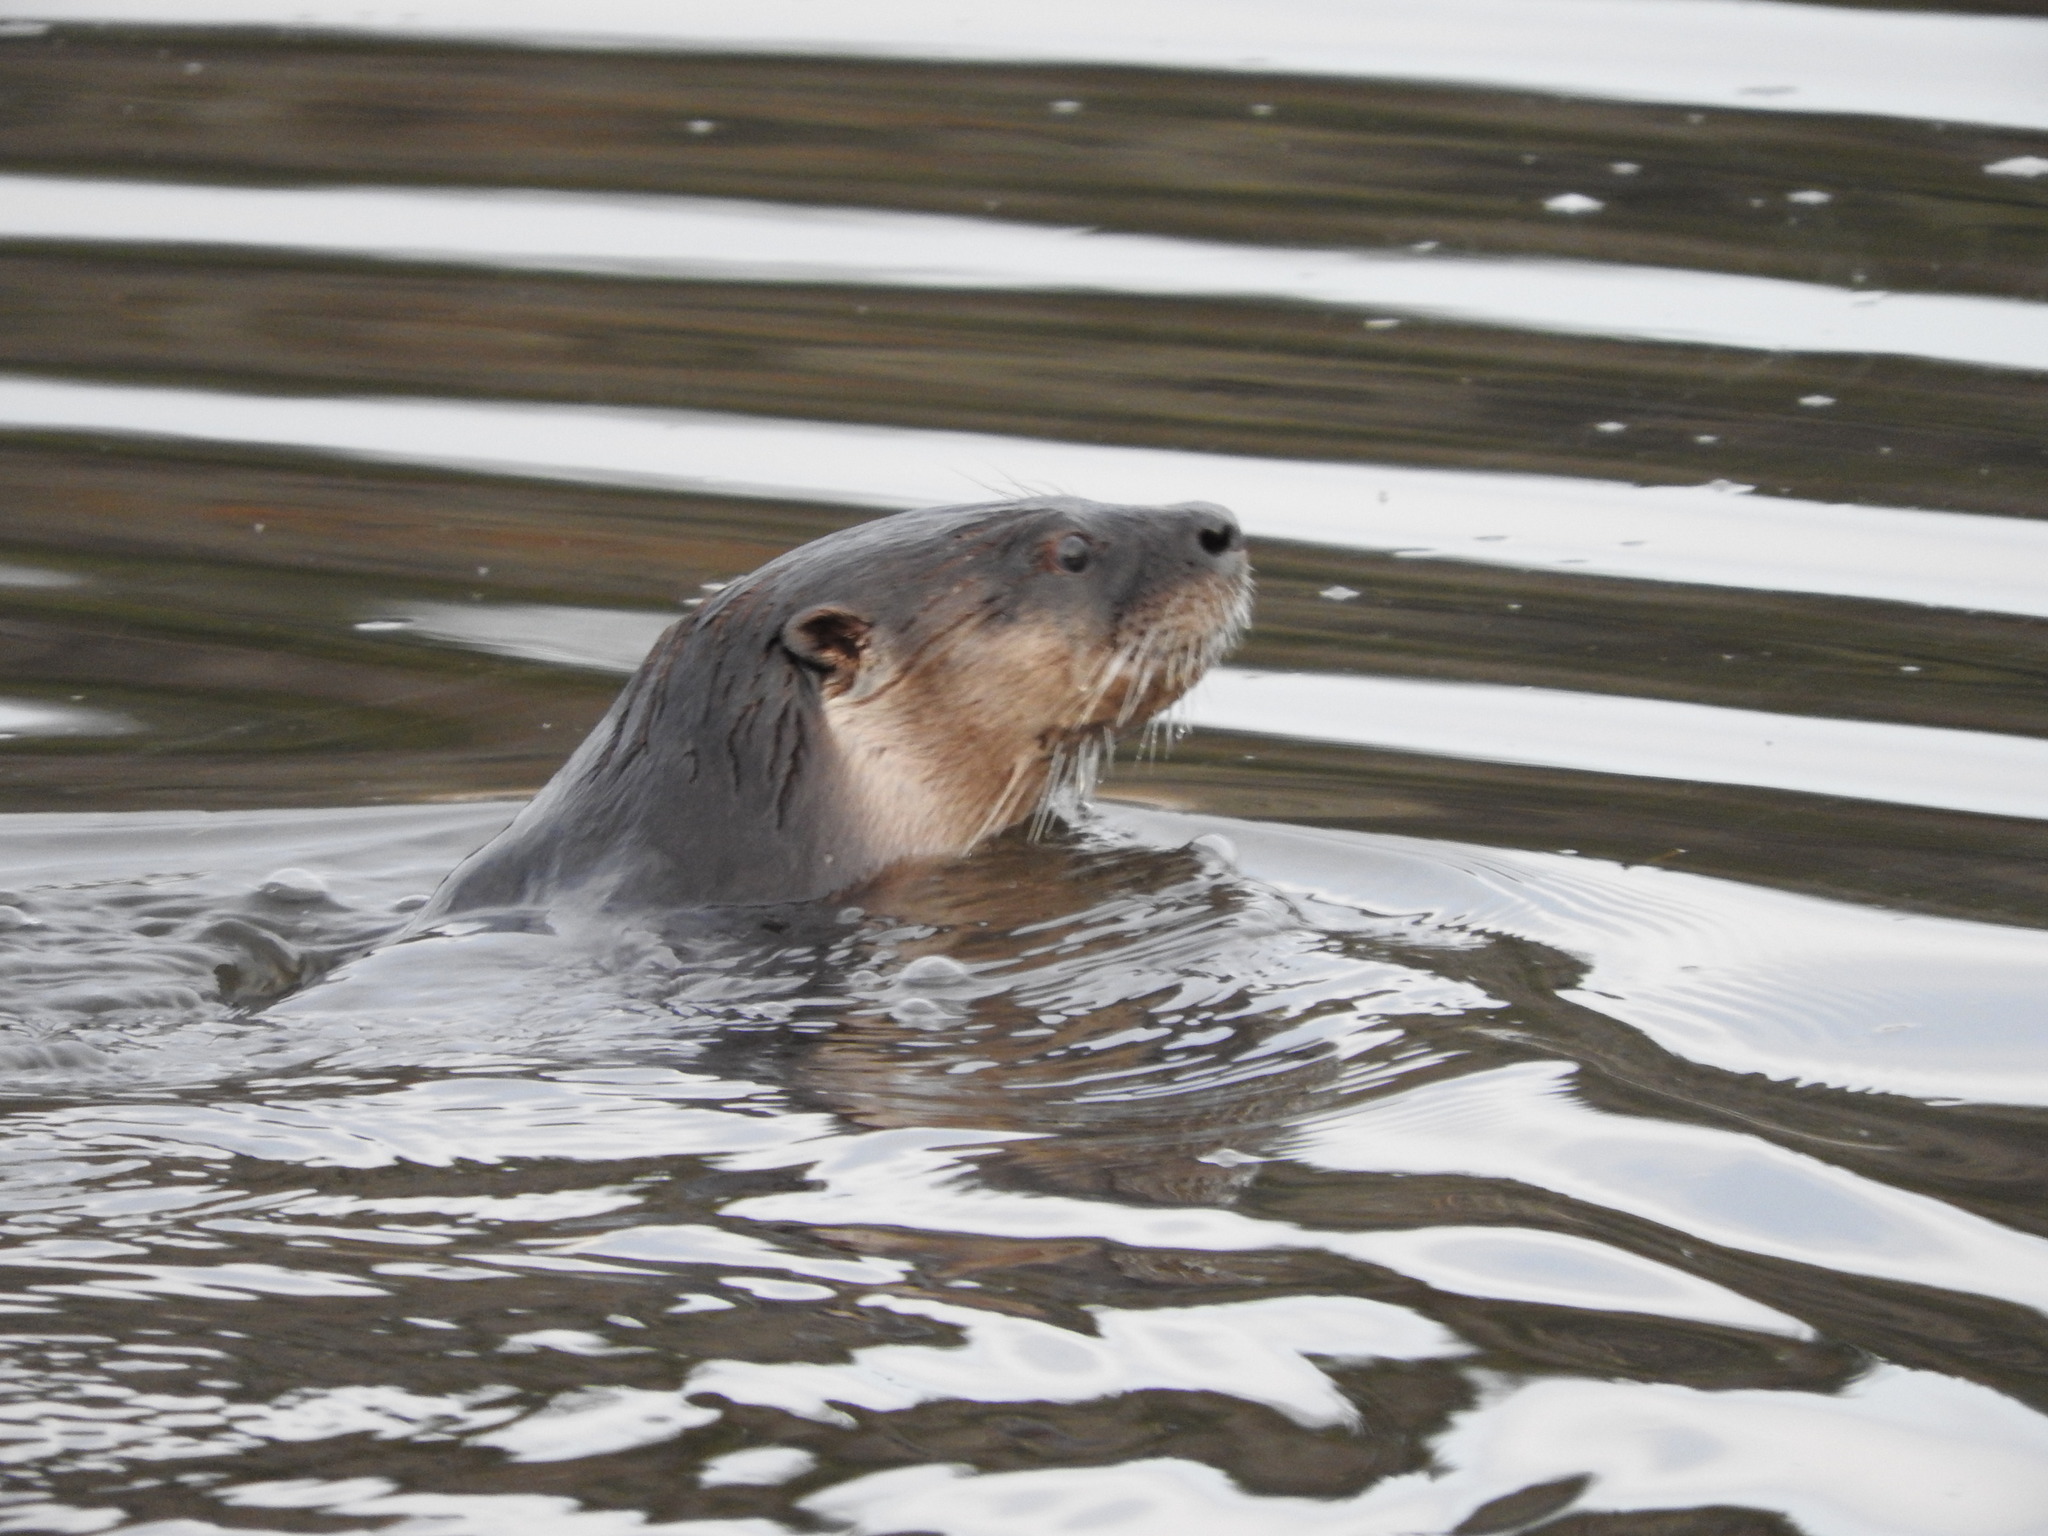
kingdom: Animalia
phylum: Chordata
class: Mammalia
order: Carnivora
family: Mustelidae
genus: Lontra
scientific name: Lontra canadensis
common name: North american river otter
